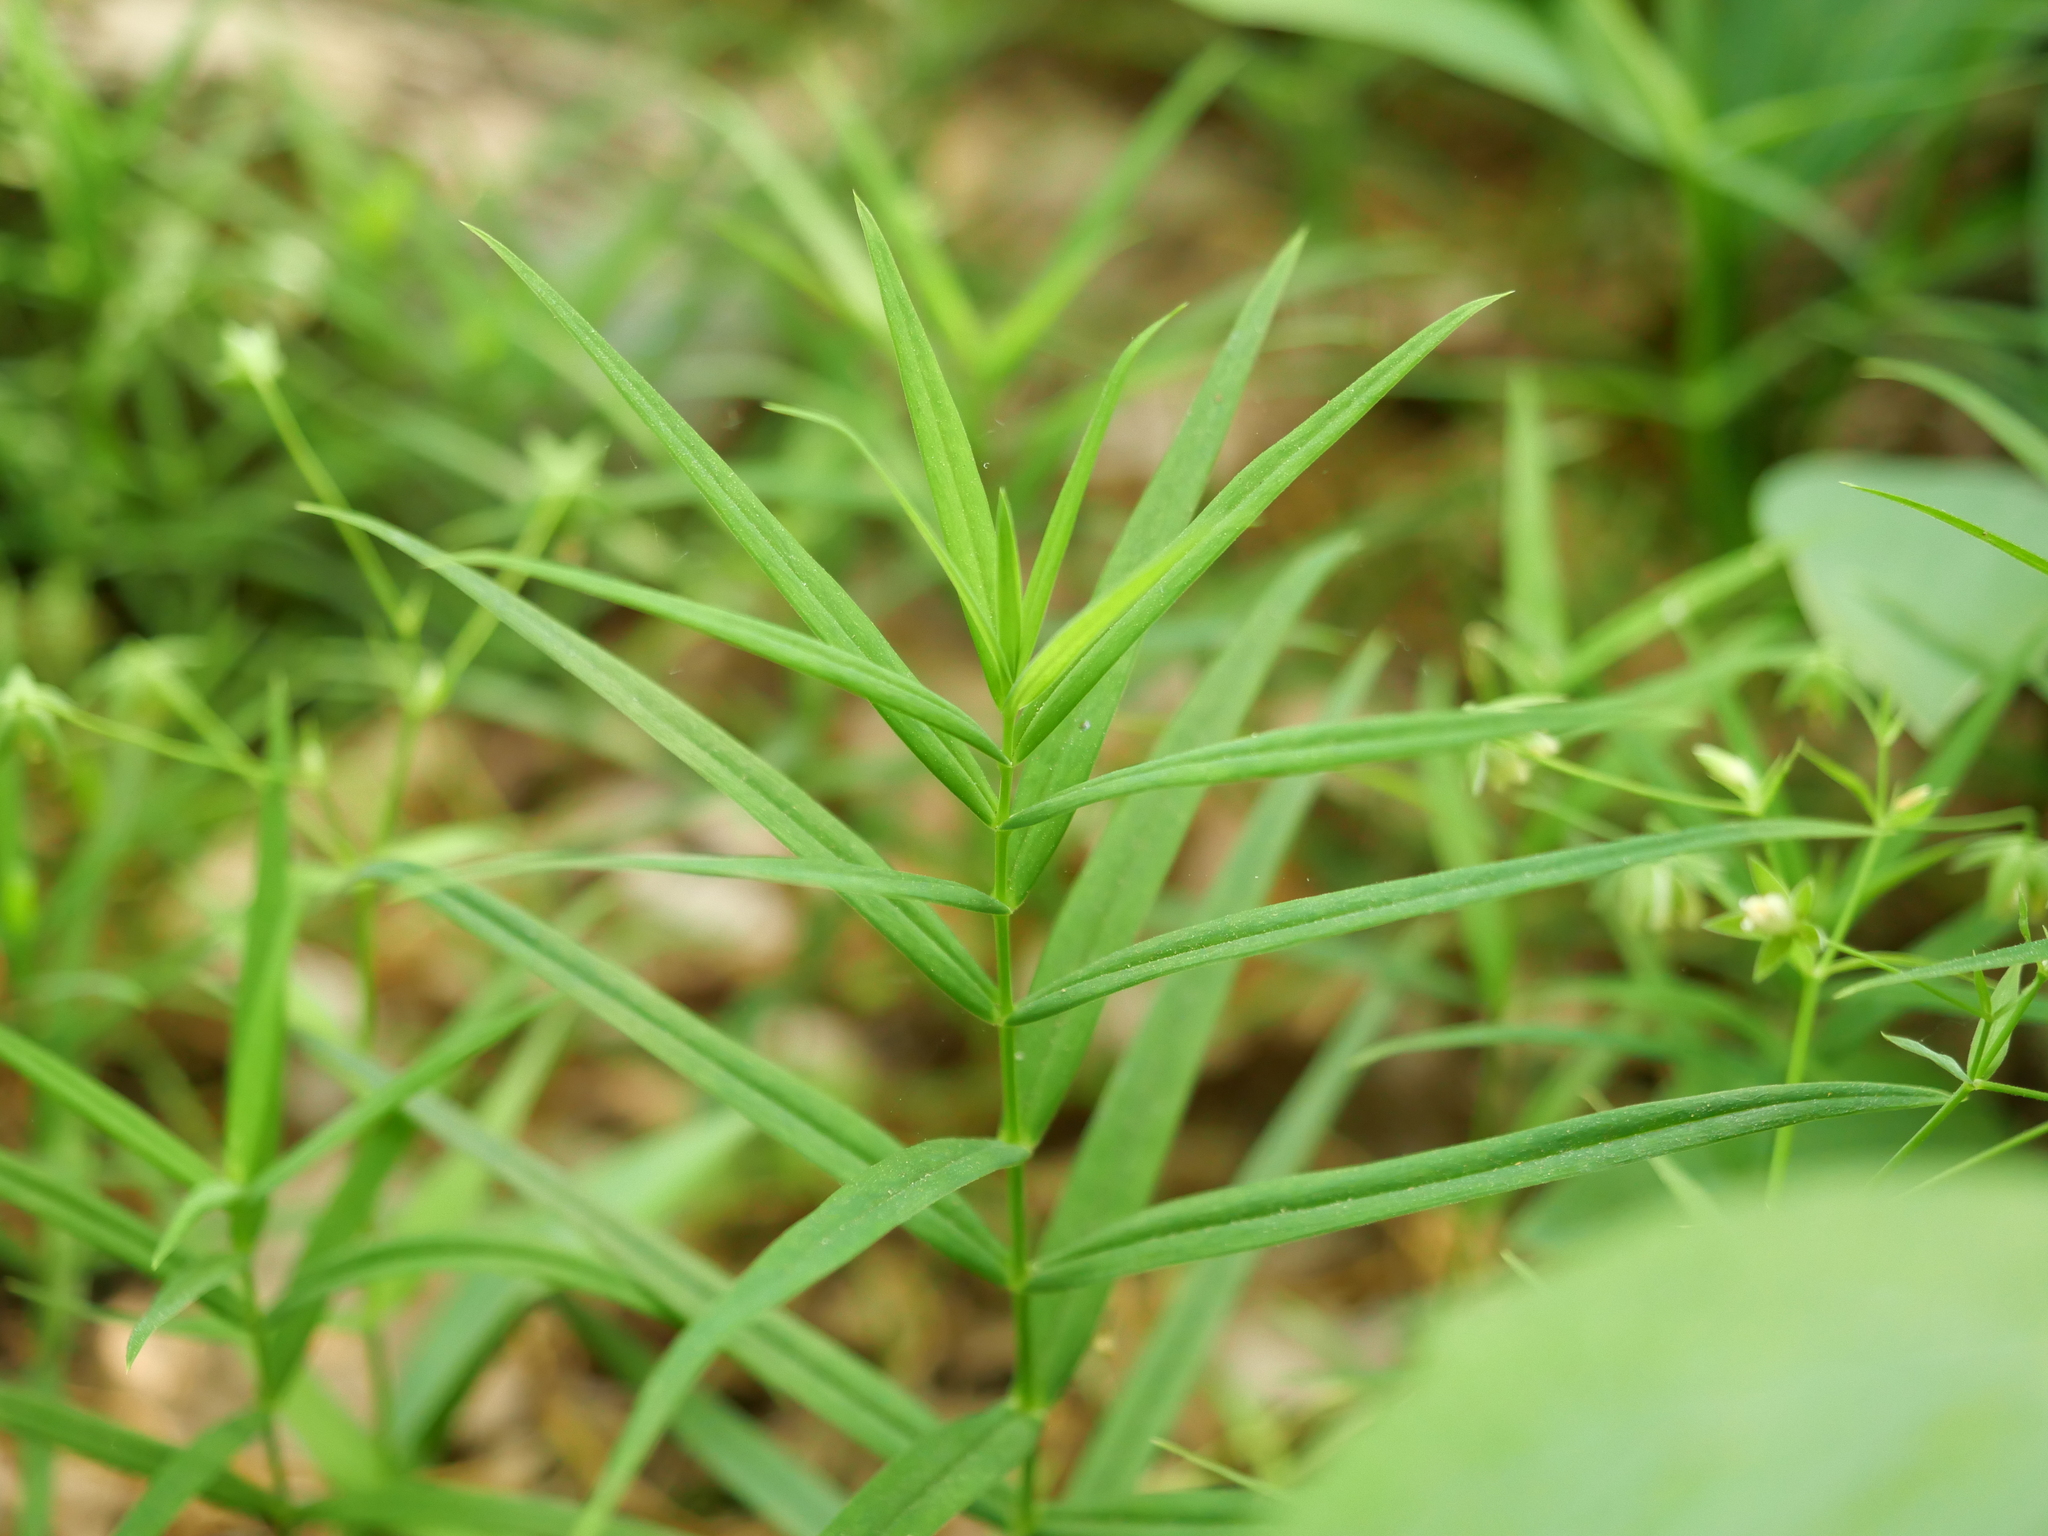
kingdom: Plantae
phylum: Tracheophyta
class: Magnoliopsida
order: Caryophyllales
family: Caryophyllaceae
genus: Rabelera
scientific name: Rabelera holostea
